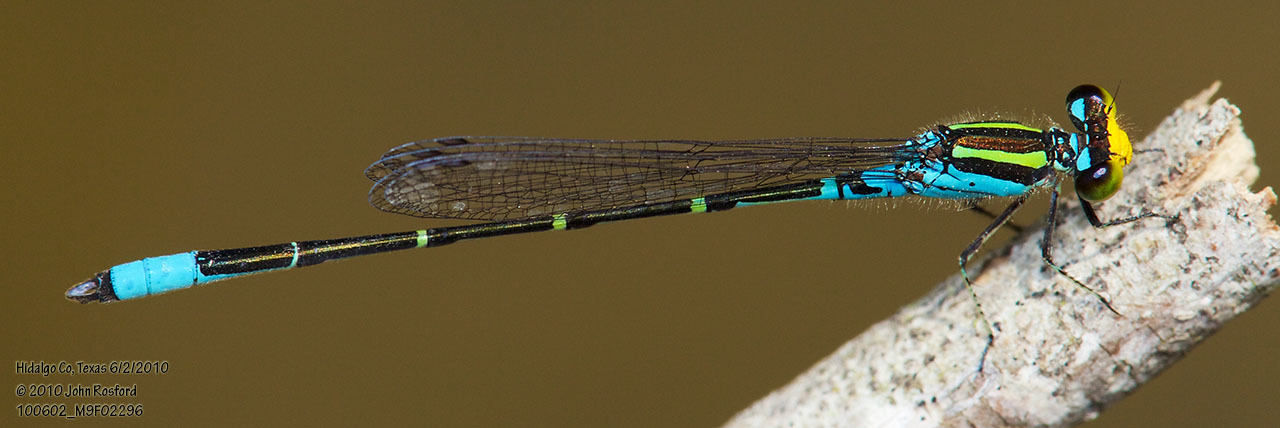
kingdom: Animalia
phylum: Arthropoda
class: Insecta
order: Odonata
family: Coenagrionidae
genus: Neoerythromma
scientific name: Neoerythromma cultellatum
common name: Caribbean yellowface
